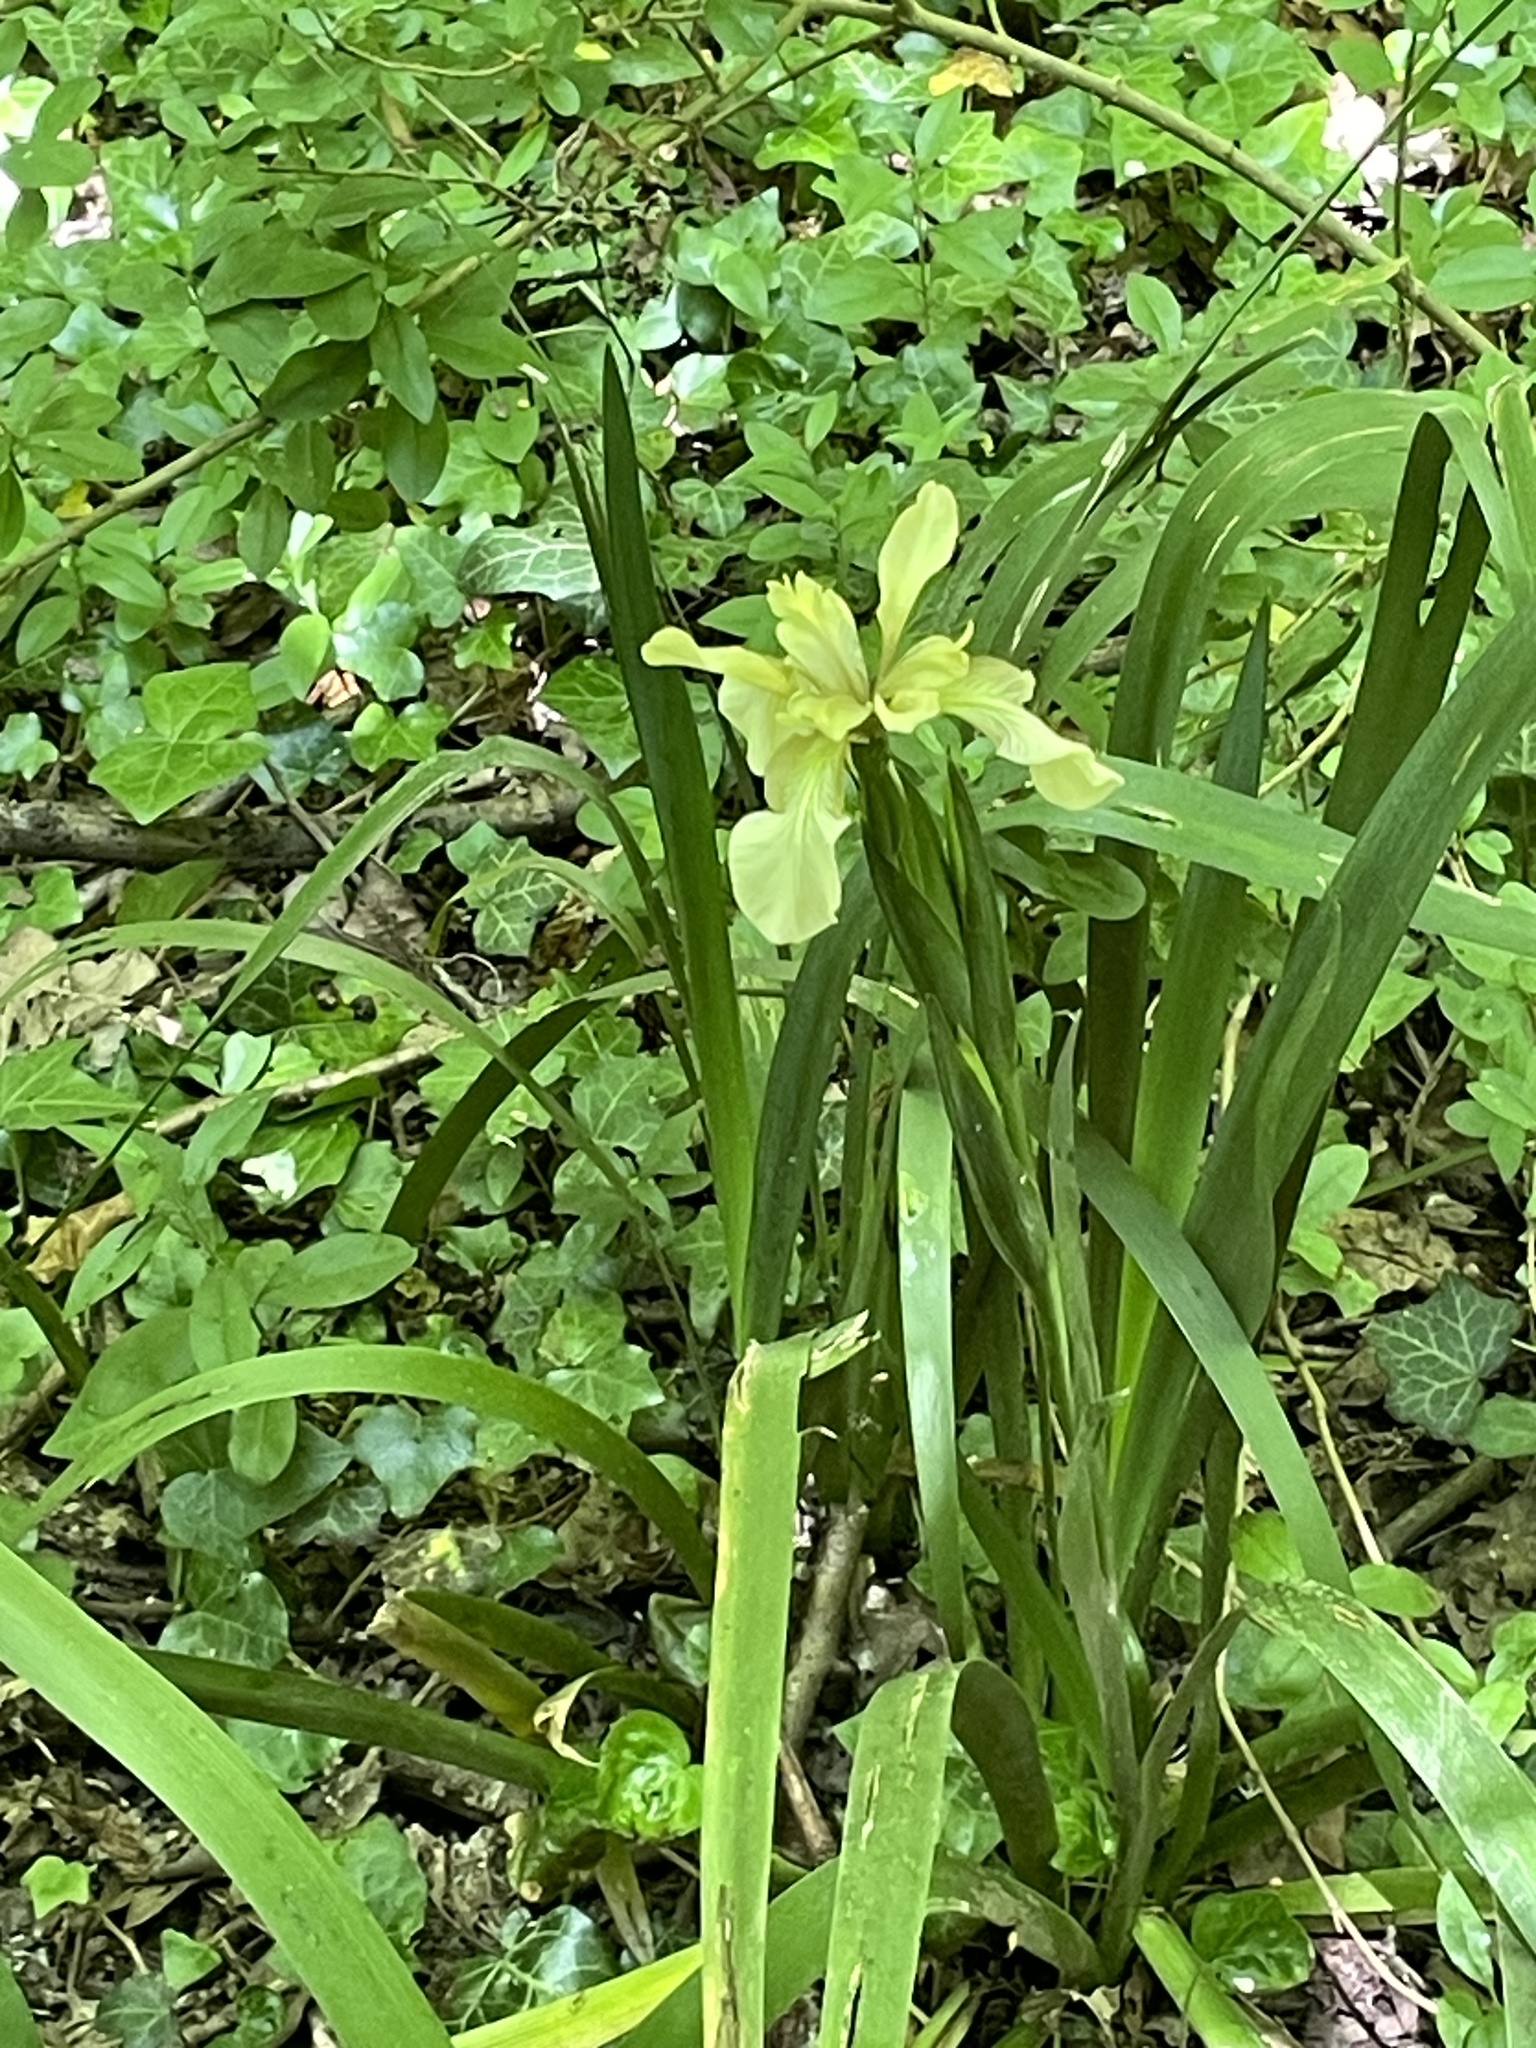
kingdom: Plantae
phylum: Tracheophyta
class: Liliopsida
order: Asparagales
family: Iridaceae
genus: Iris
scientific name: Iris foetidissima
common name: Stinking iris
